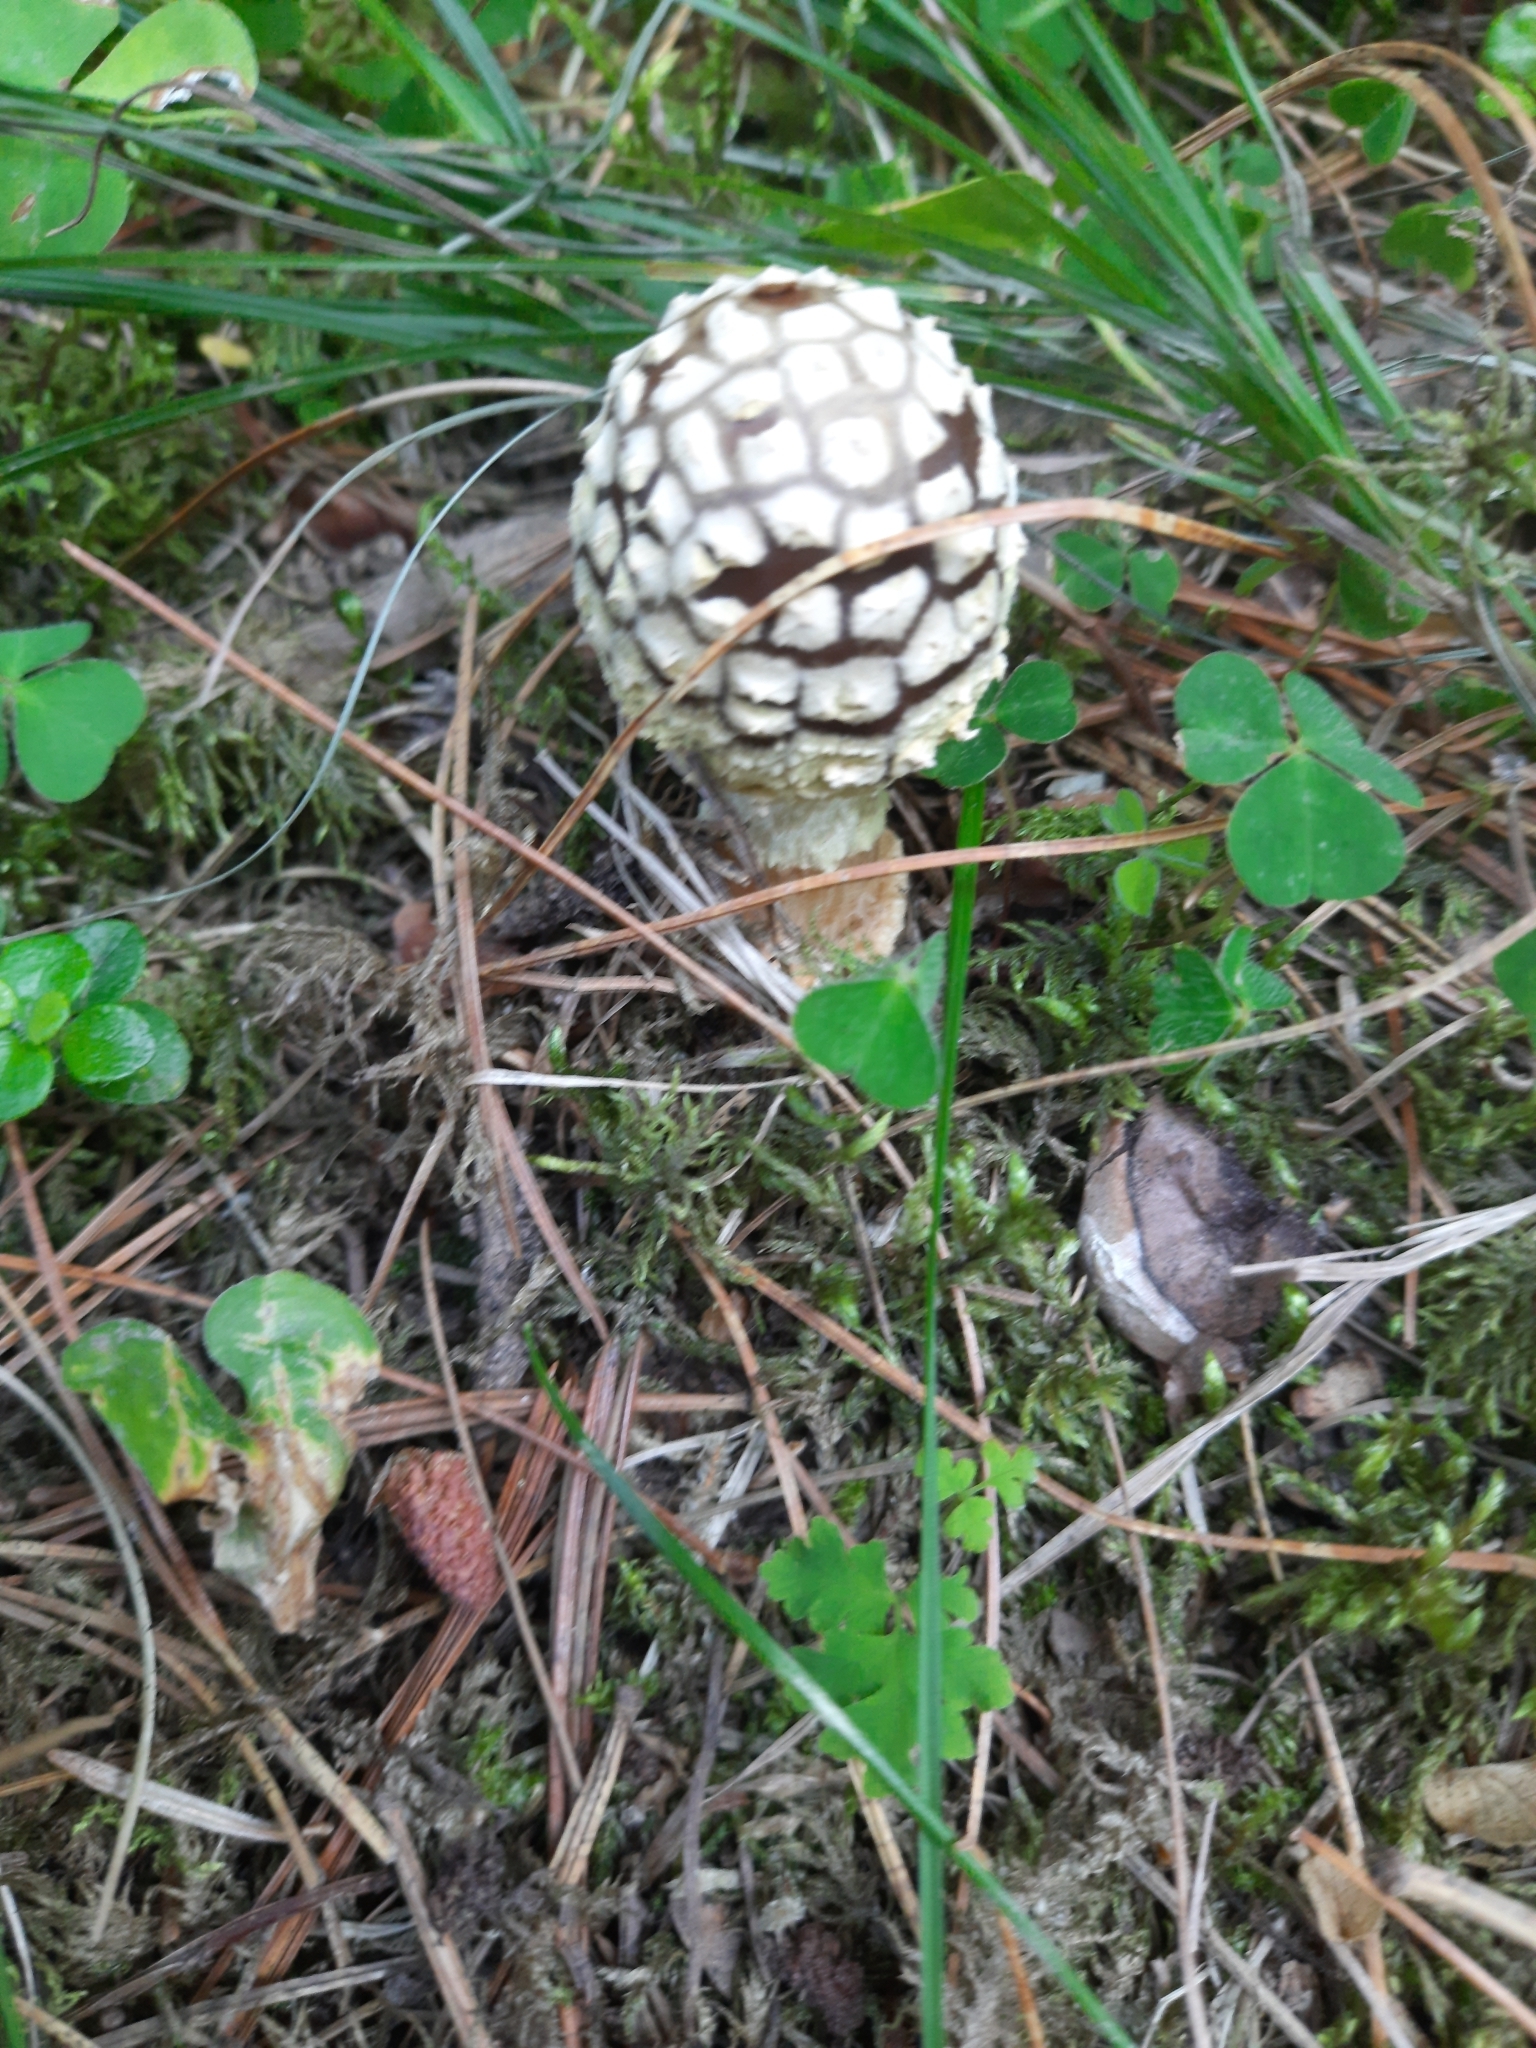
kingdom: Fungi
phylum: Basidiomycota
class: Agaricomycetes
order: Agaricales
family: Amanitaceae
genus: Amanita
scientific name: Amanita regalis
